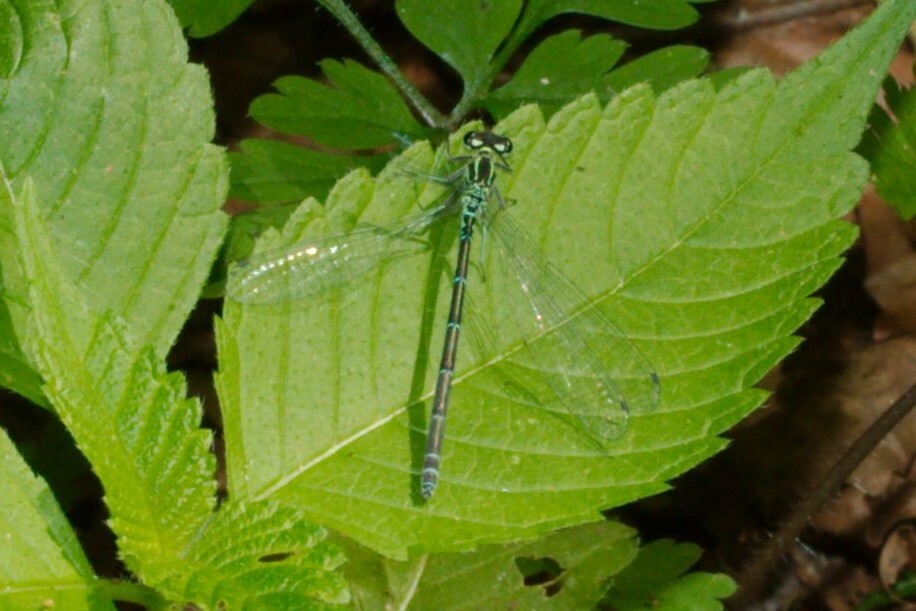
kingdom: Animalia
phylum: Arthropoda
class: Insecta
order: Odonata
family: Coenagrionidae
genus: Coenagrion
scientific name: Coenagrion puella
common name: Azure damselfly
